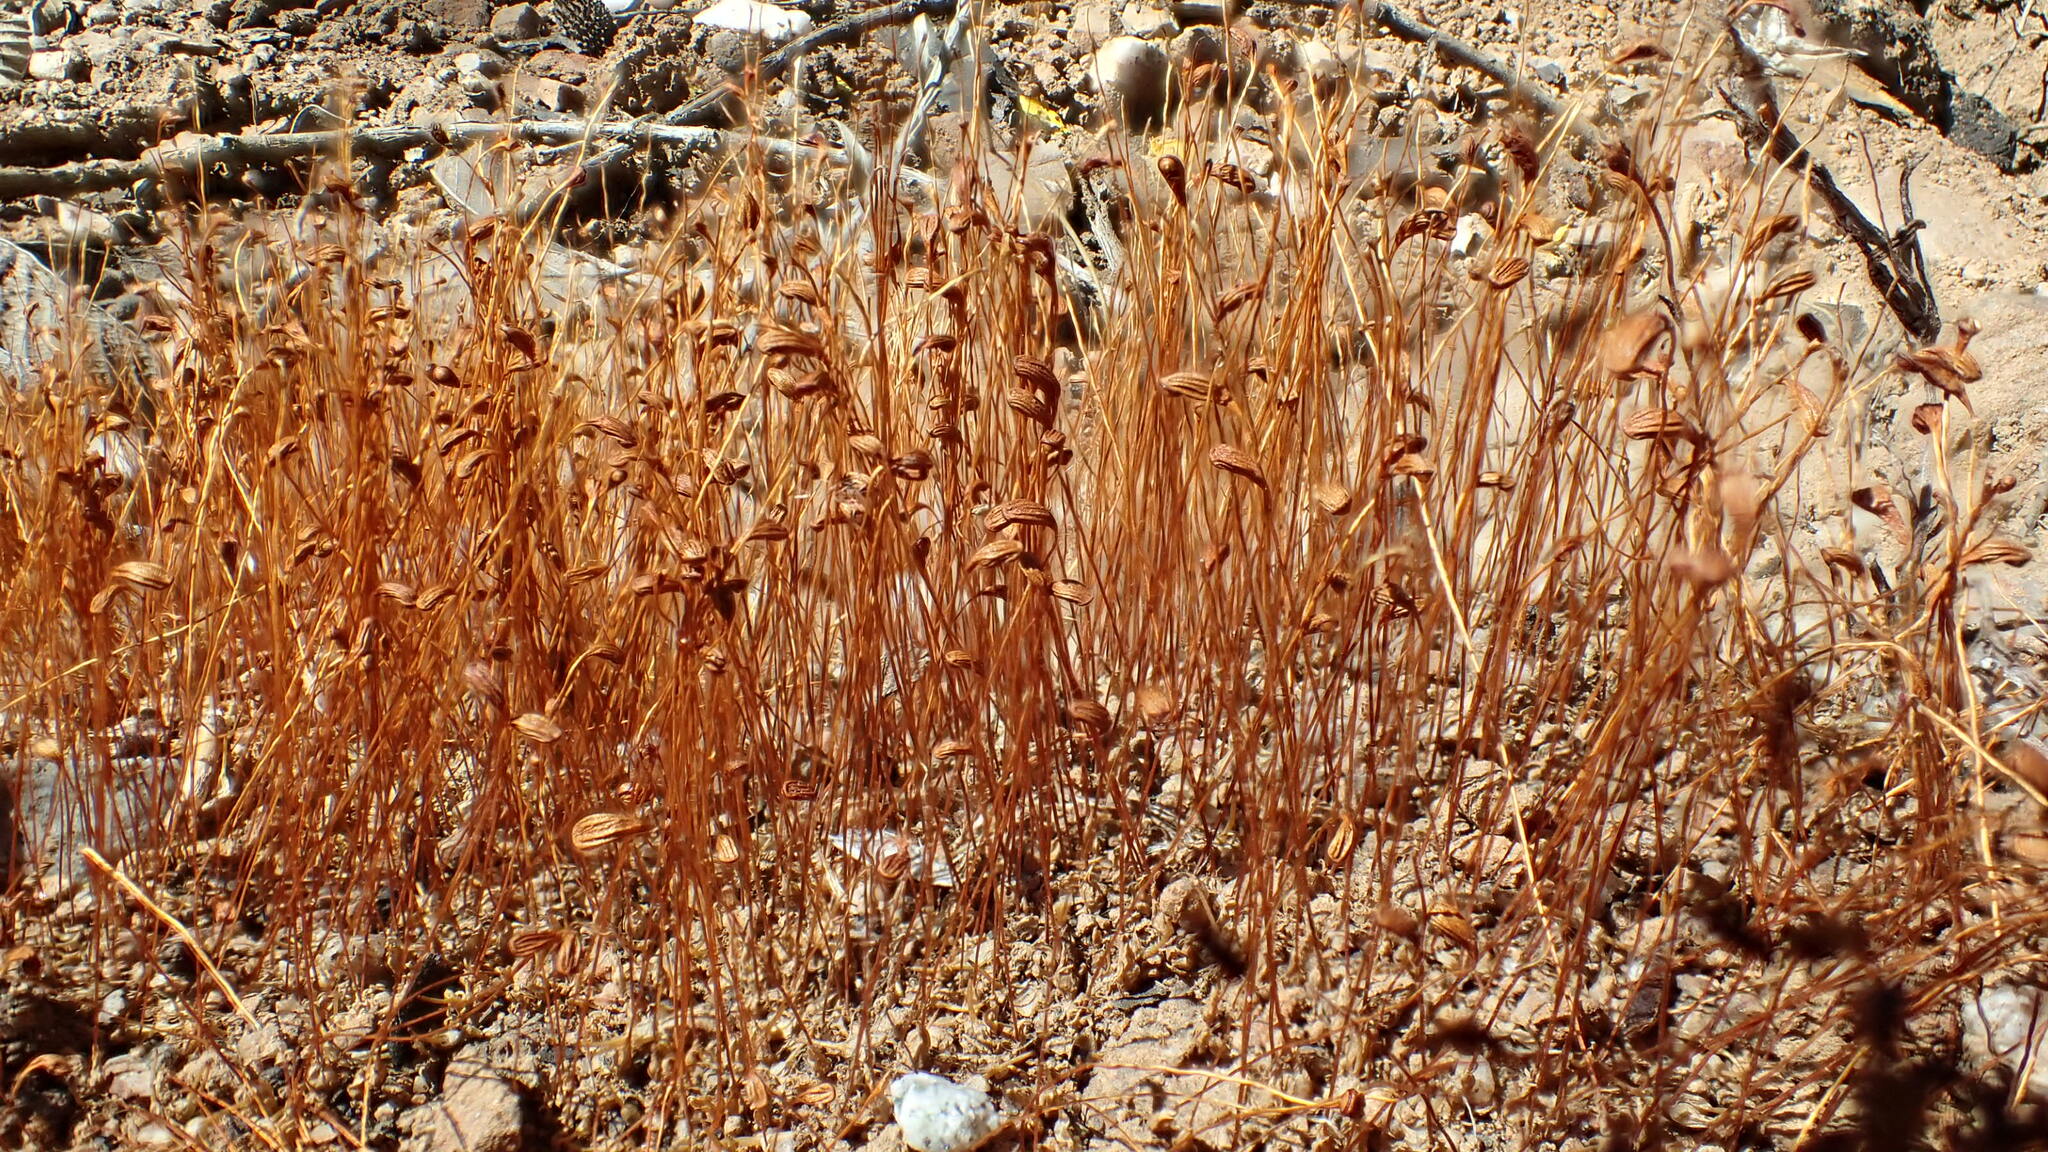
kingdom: Plantae
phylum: Bryophyta
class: Bryopsida
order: Funariales
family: Funariaceae
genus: Funaria
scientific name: Funaria hygrometrica
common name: Common cord moss
